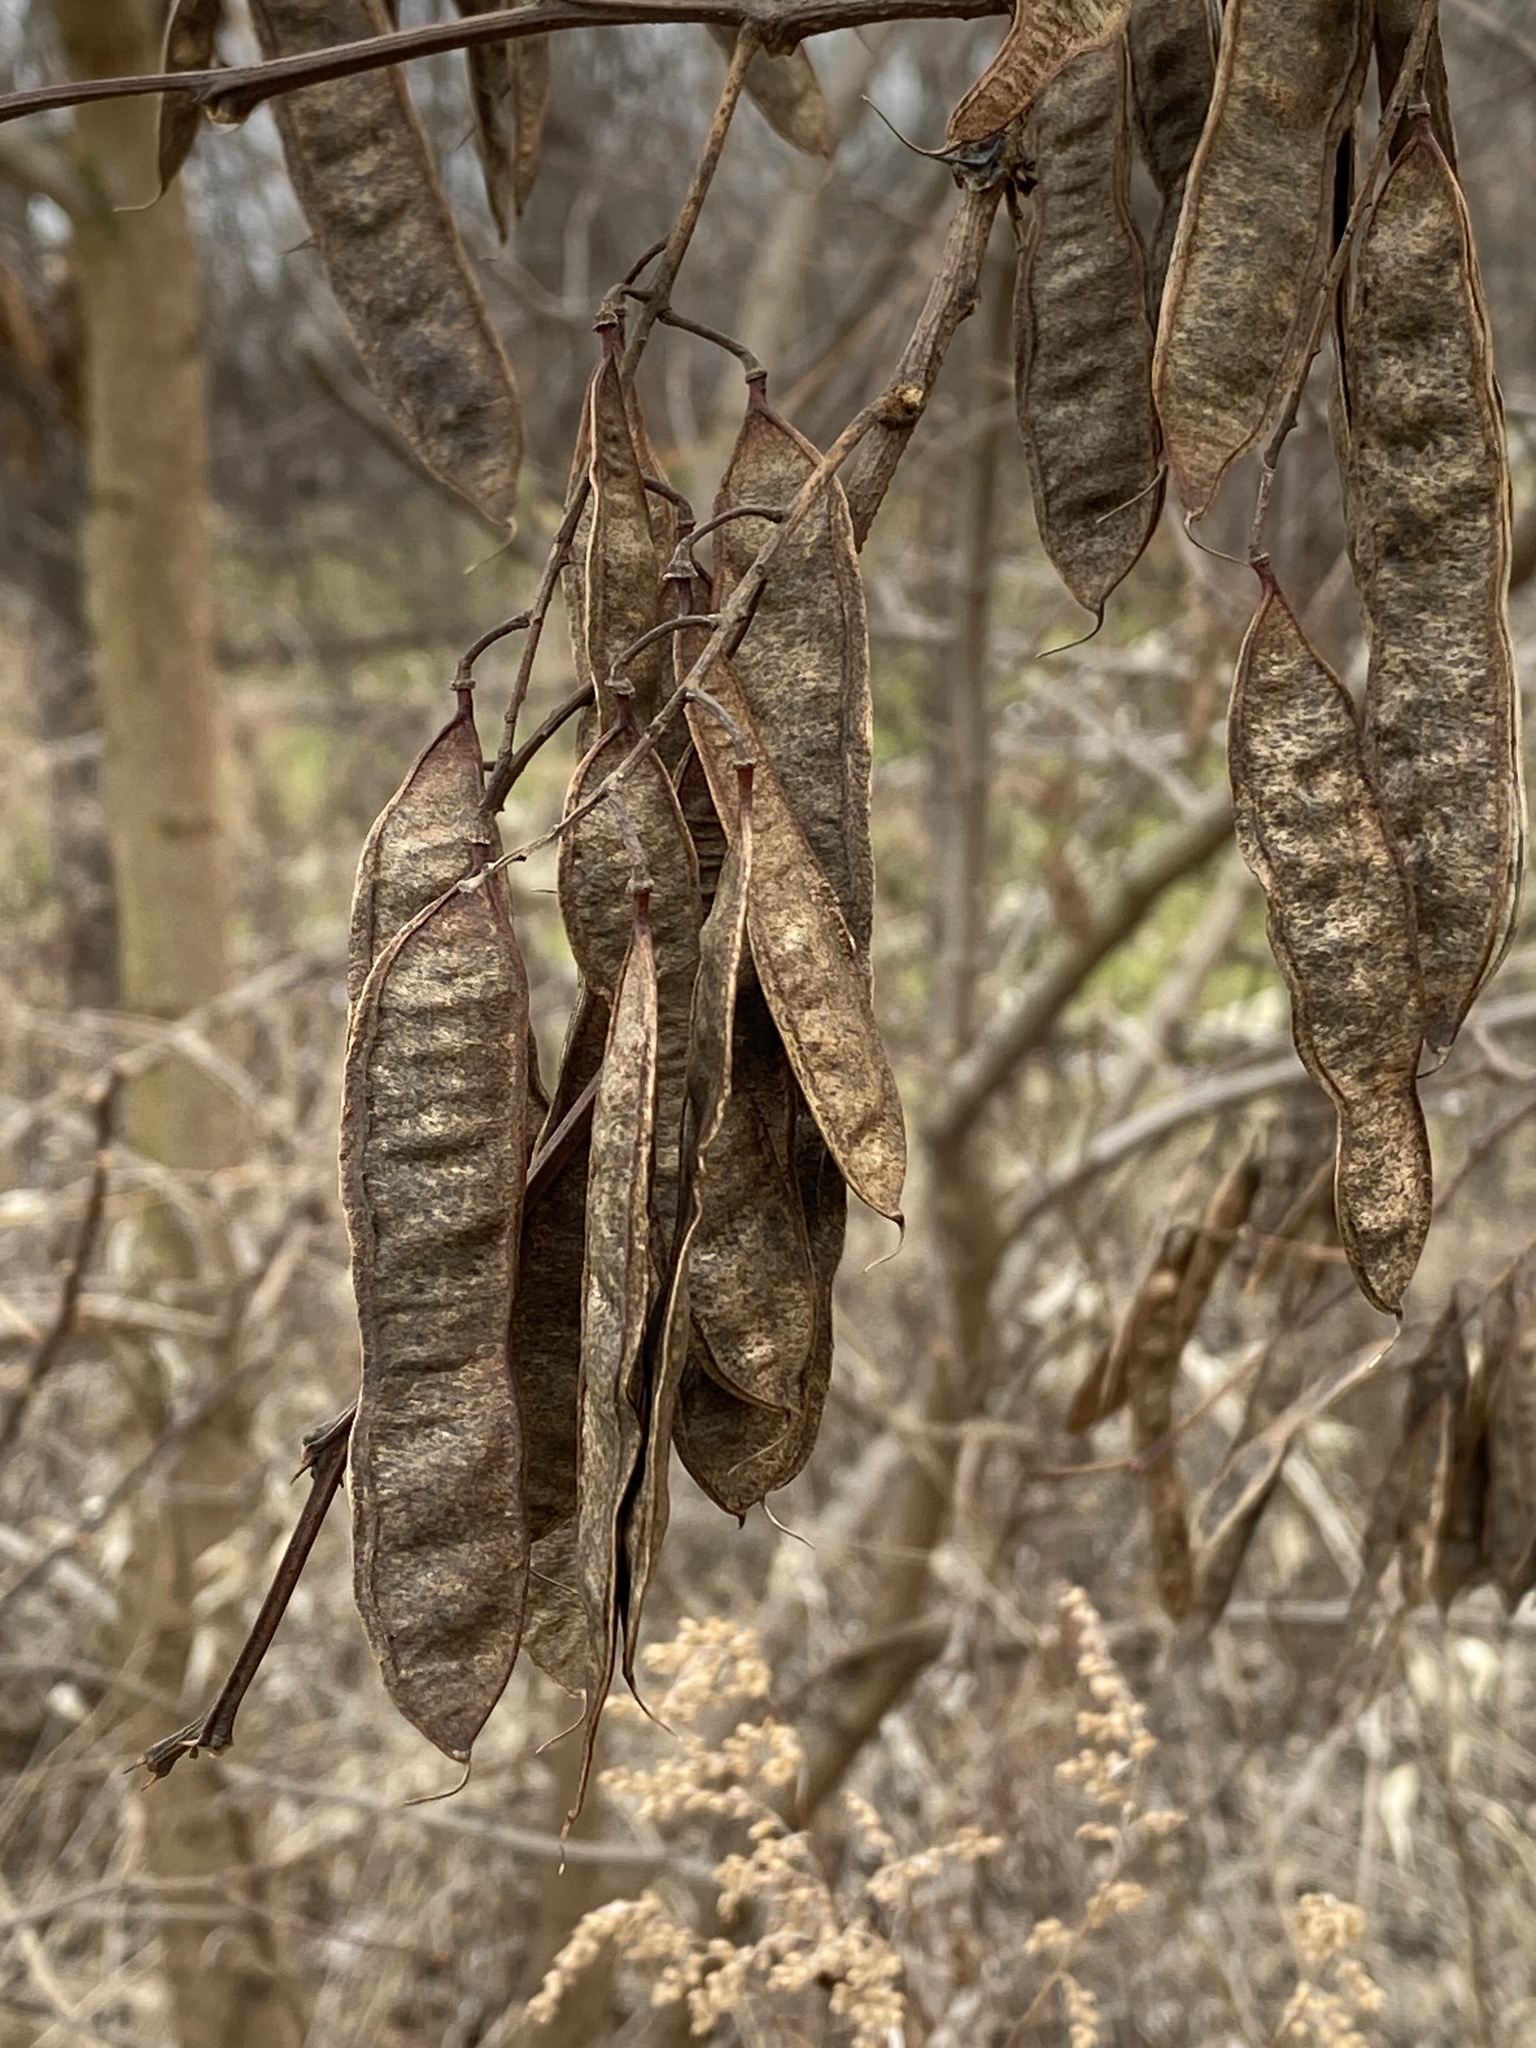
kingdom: Plantae
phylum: Tracheophyta
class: Magnoliopsida
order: Fabales
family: Fabaceae
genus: Robinia
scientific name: Robinia pseudoacacia
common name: Black locust
